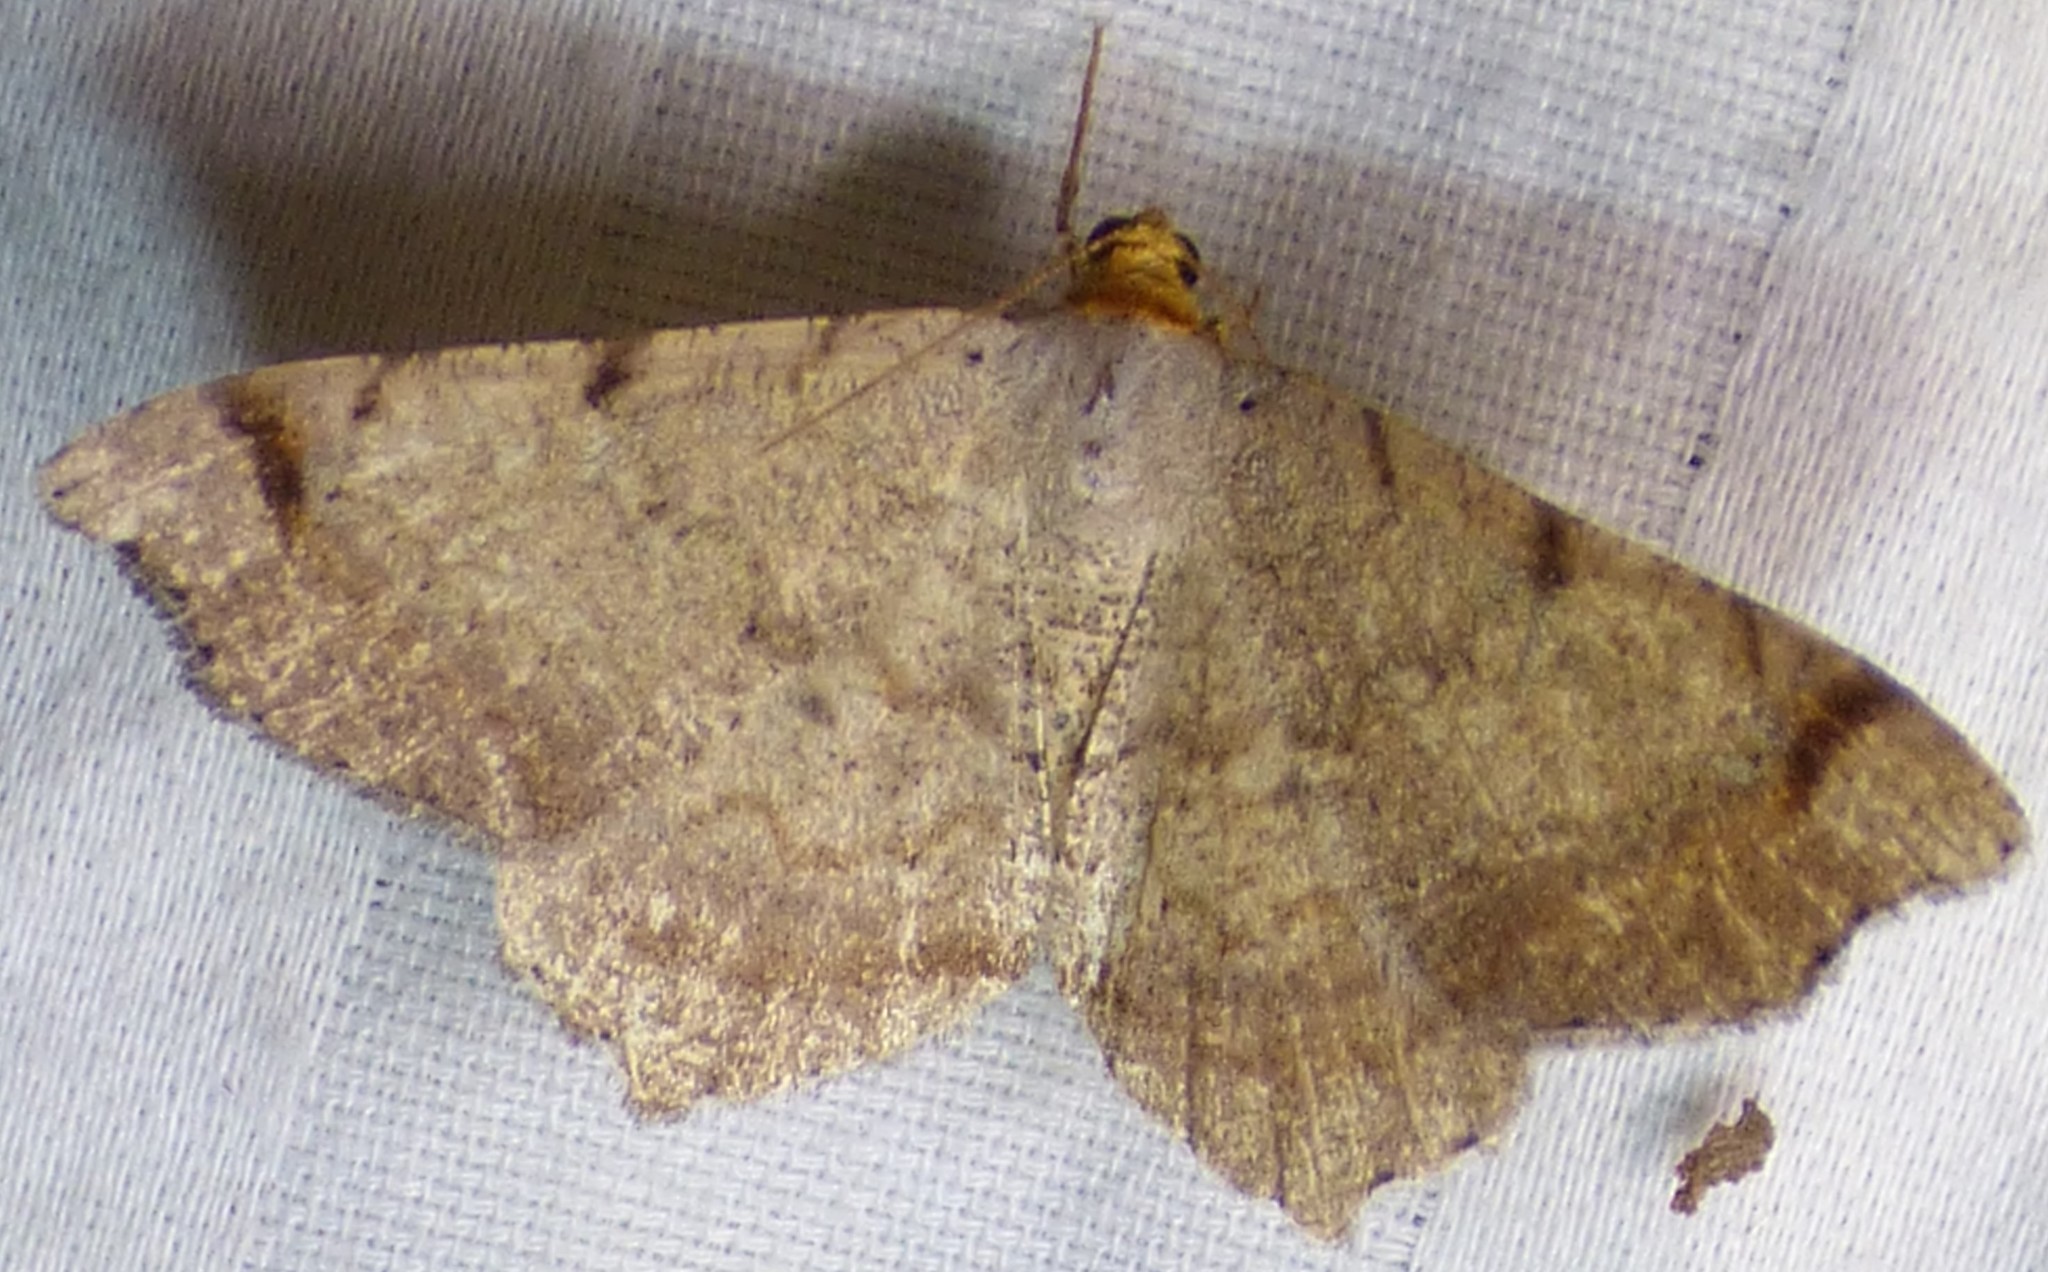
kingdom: Animalia
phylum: Arthropoda
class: Insecta
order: Lepidoptera
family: Geometridae
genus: Macaria
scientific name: Macaria bicolorata
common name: Dingy angle
